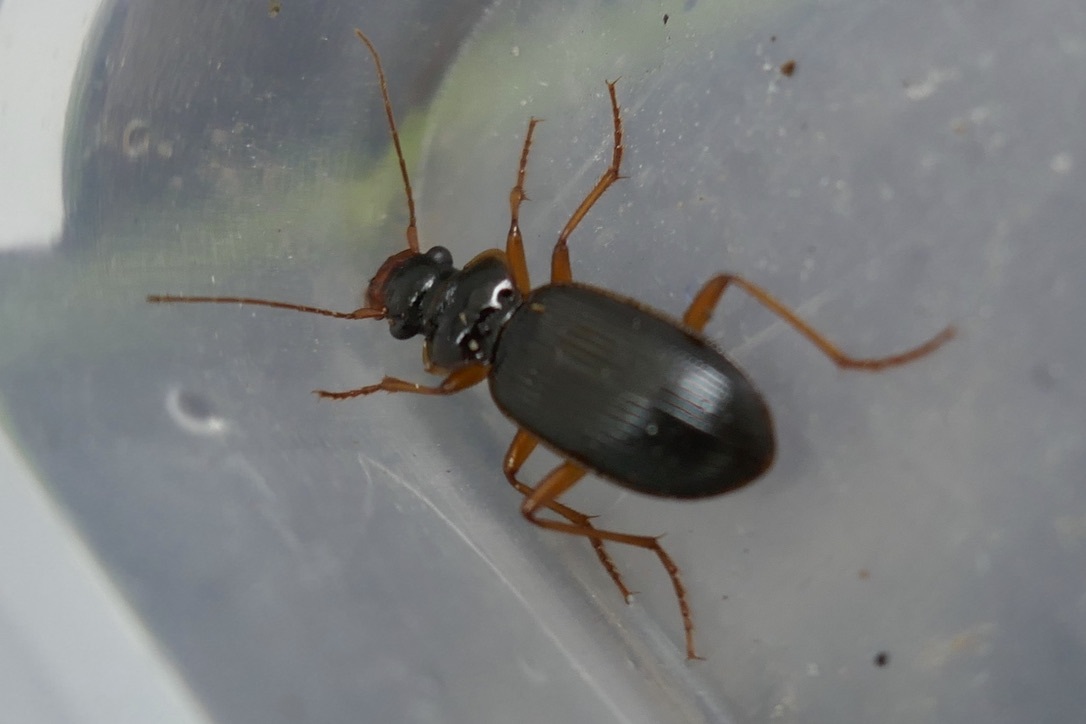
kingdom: Animalia
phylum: Arthropoda
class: Insecta
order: Coleoptera
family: Carabidae
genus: Leistus
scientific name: Leistus rufomarginatus
